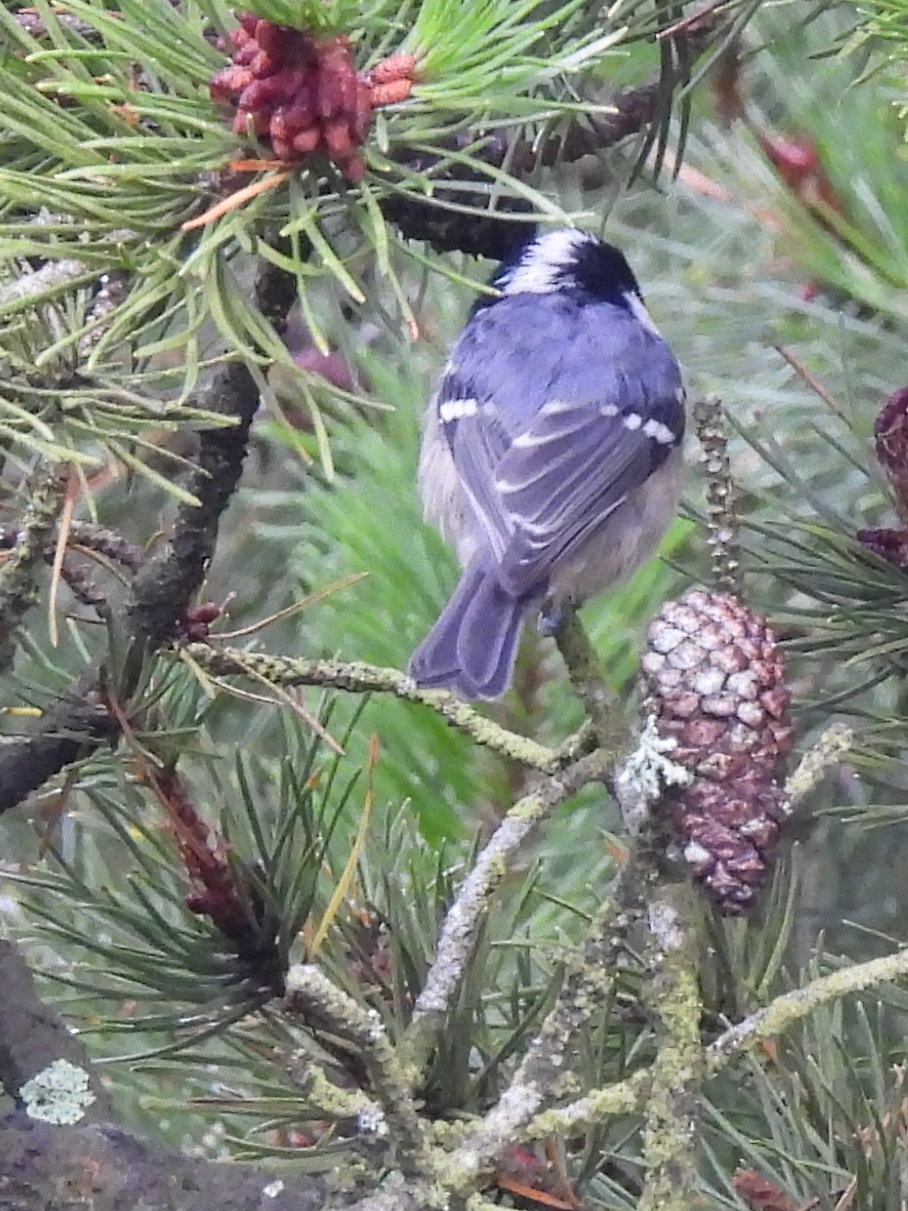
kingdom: Animalia
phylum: Chordata
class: Aves
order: Passeriformes
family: Paridae
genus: Periparus
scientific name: Periparus ater
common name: Coal tit
